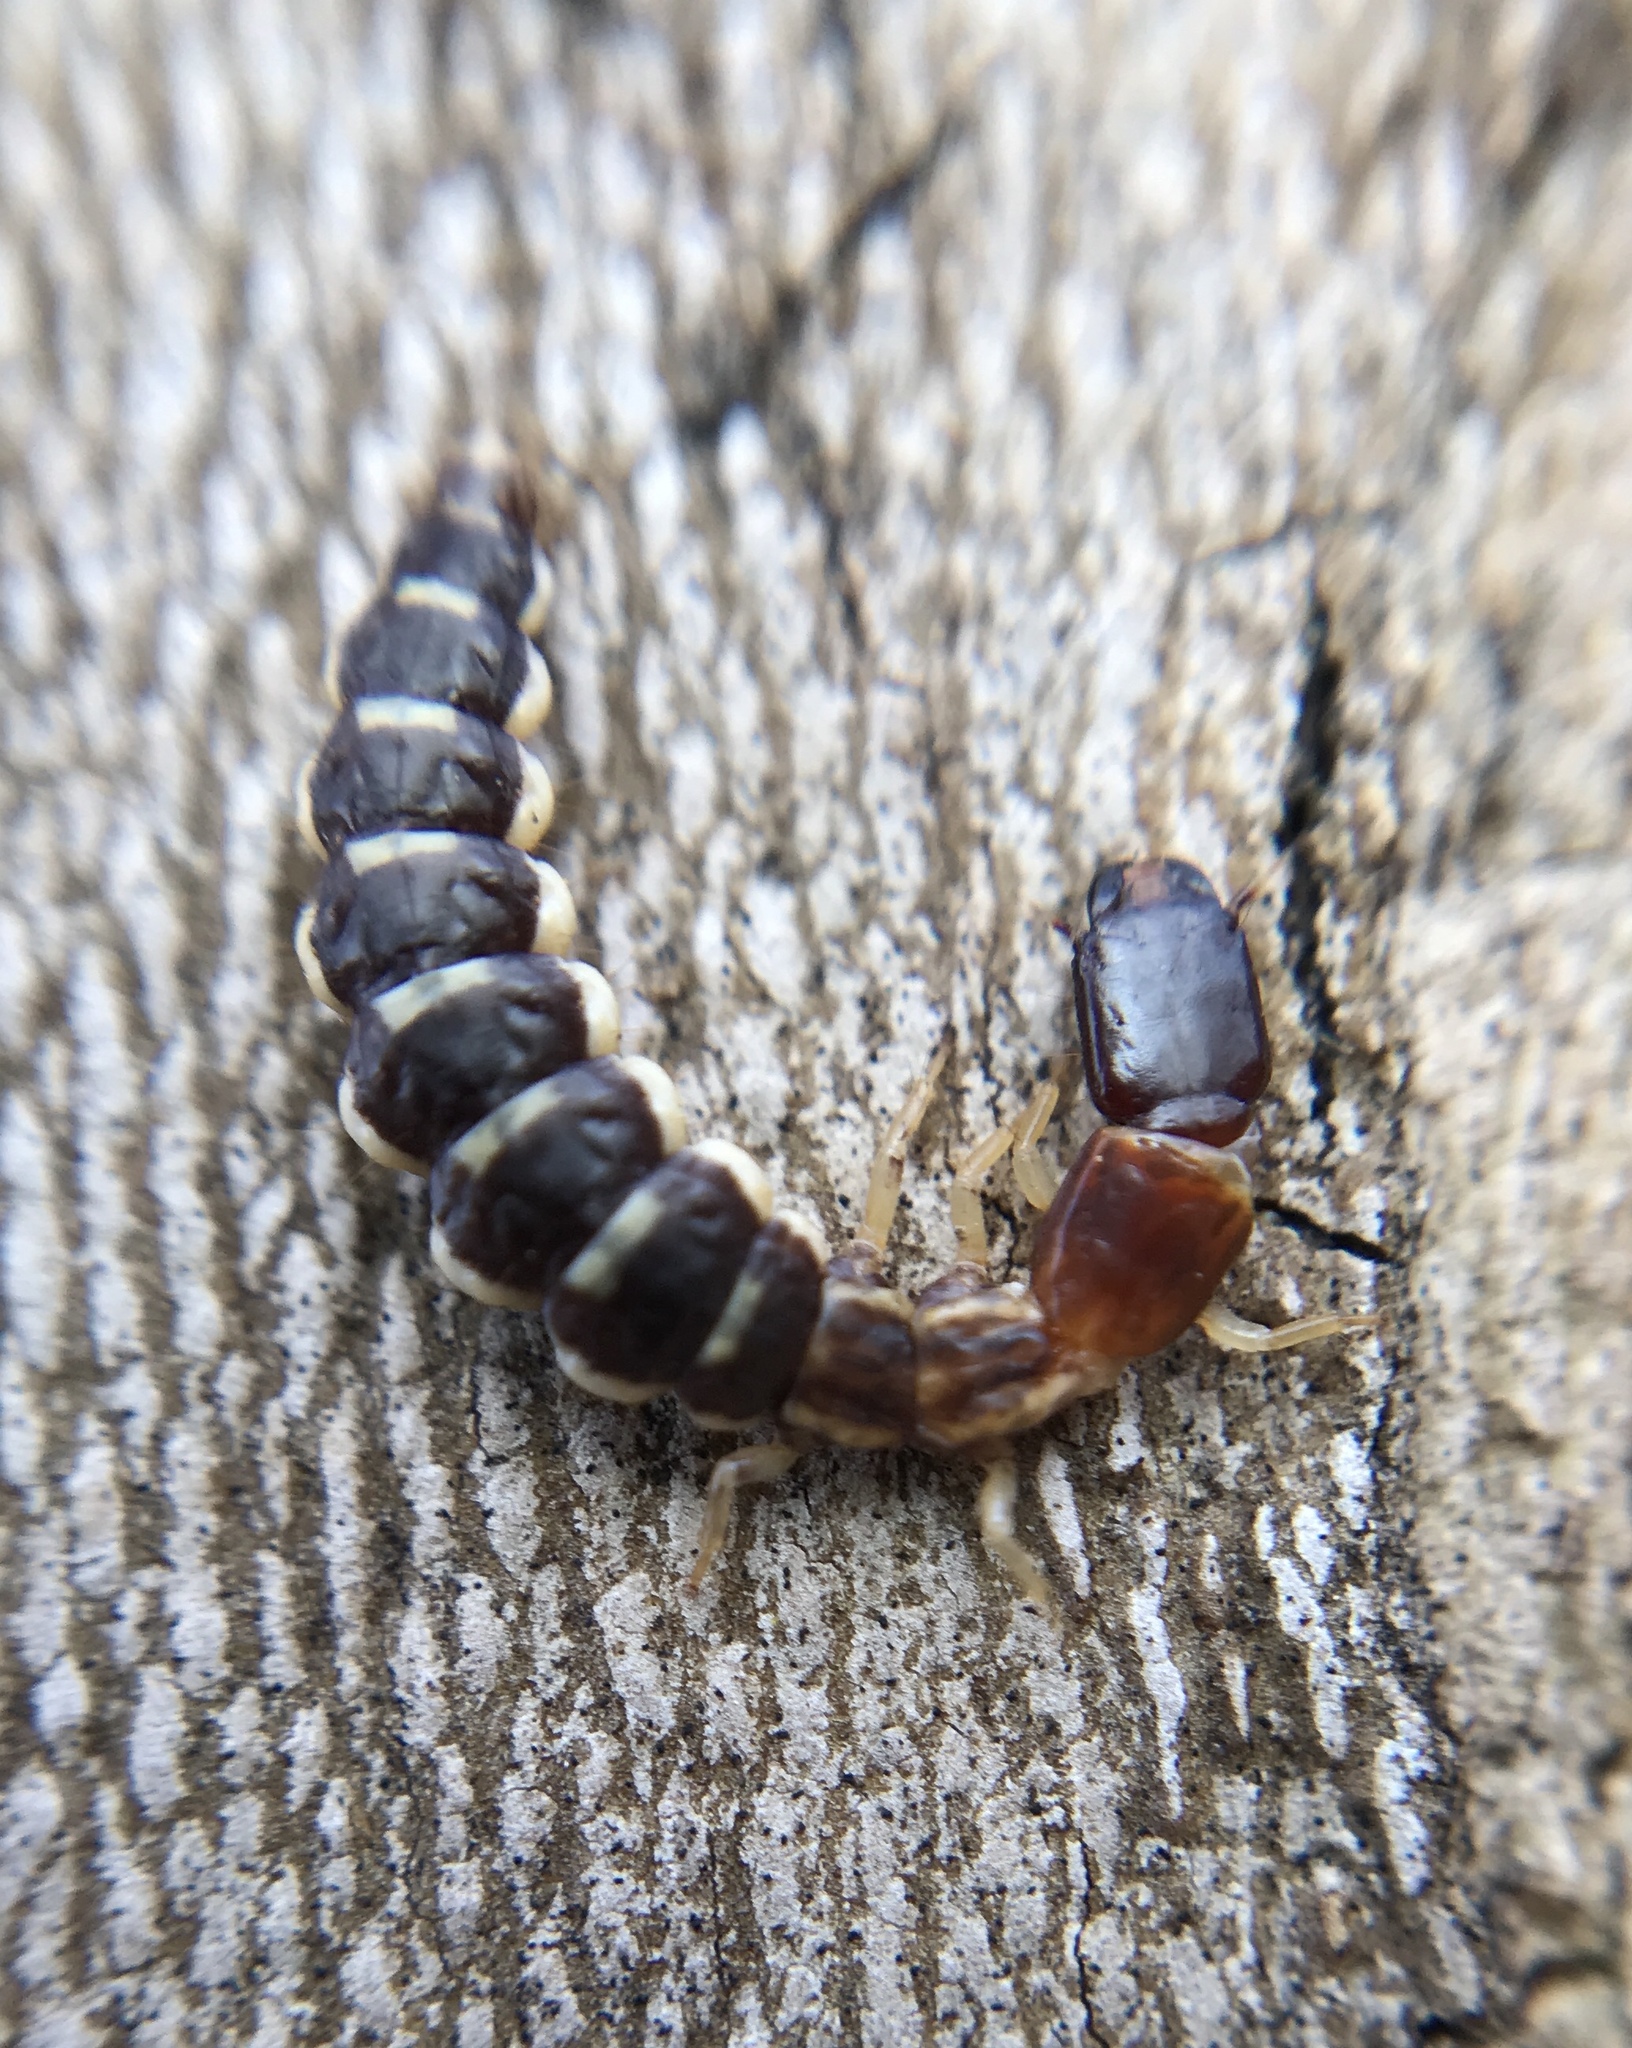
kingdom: Animalia
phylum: Arthropoda
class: Insecta
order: Raphidioptera
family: Inocelliidae
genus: Parainocellia
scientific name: Parainocellia bicolor
